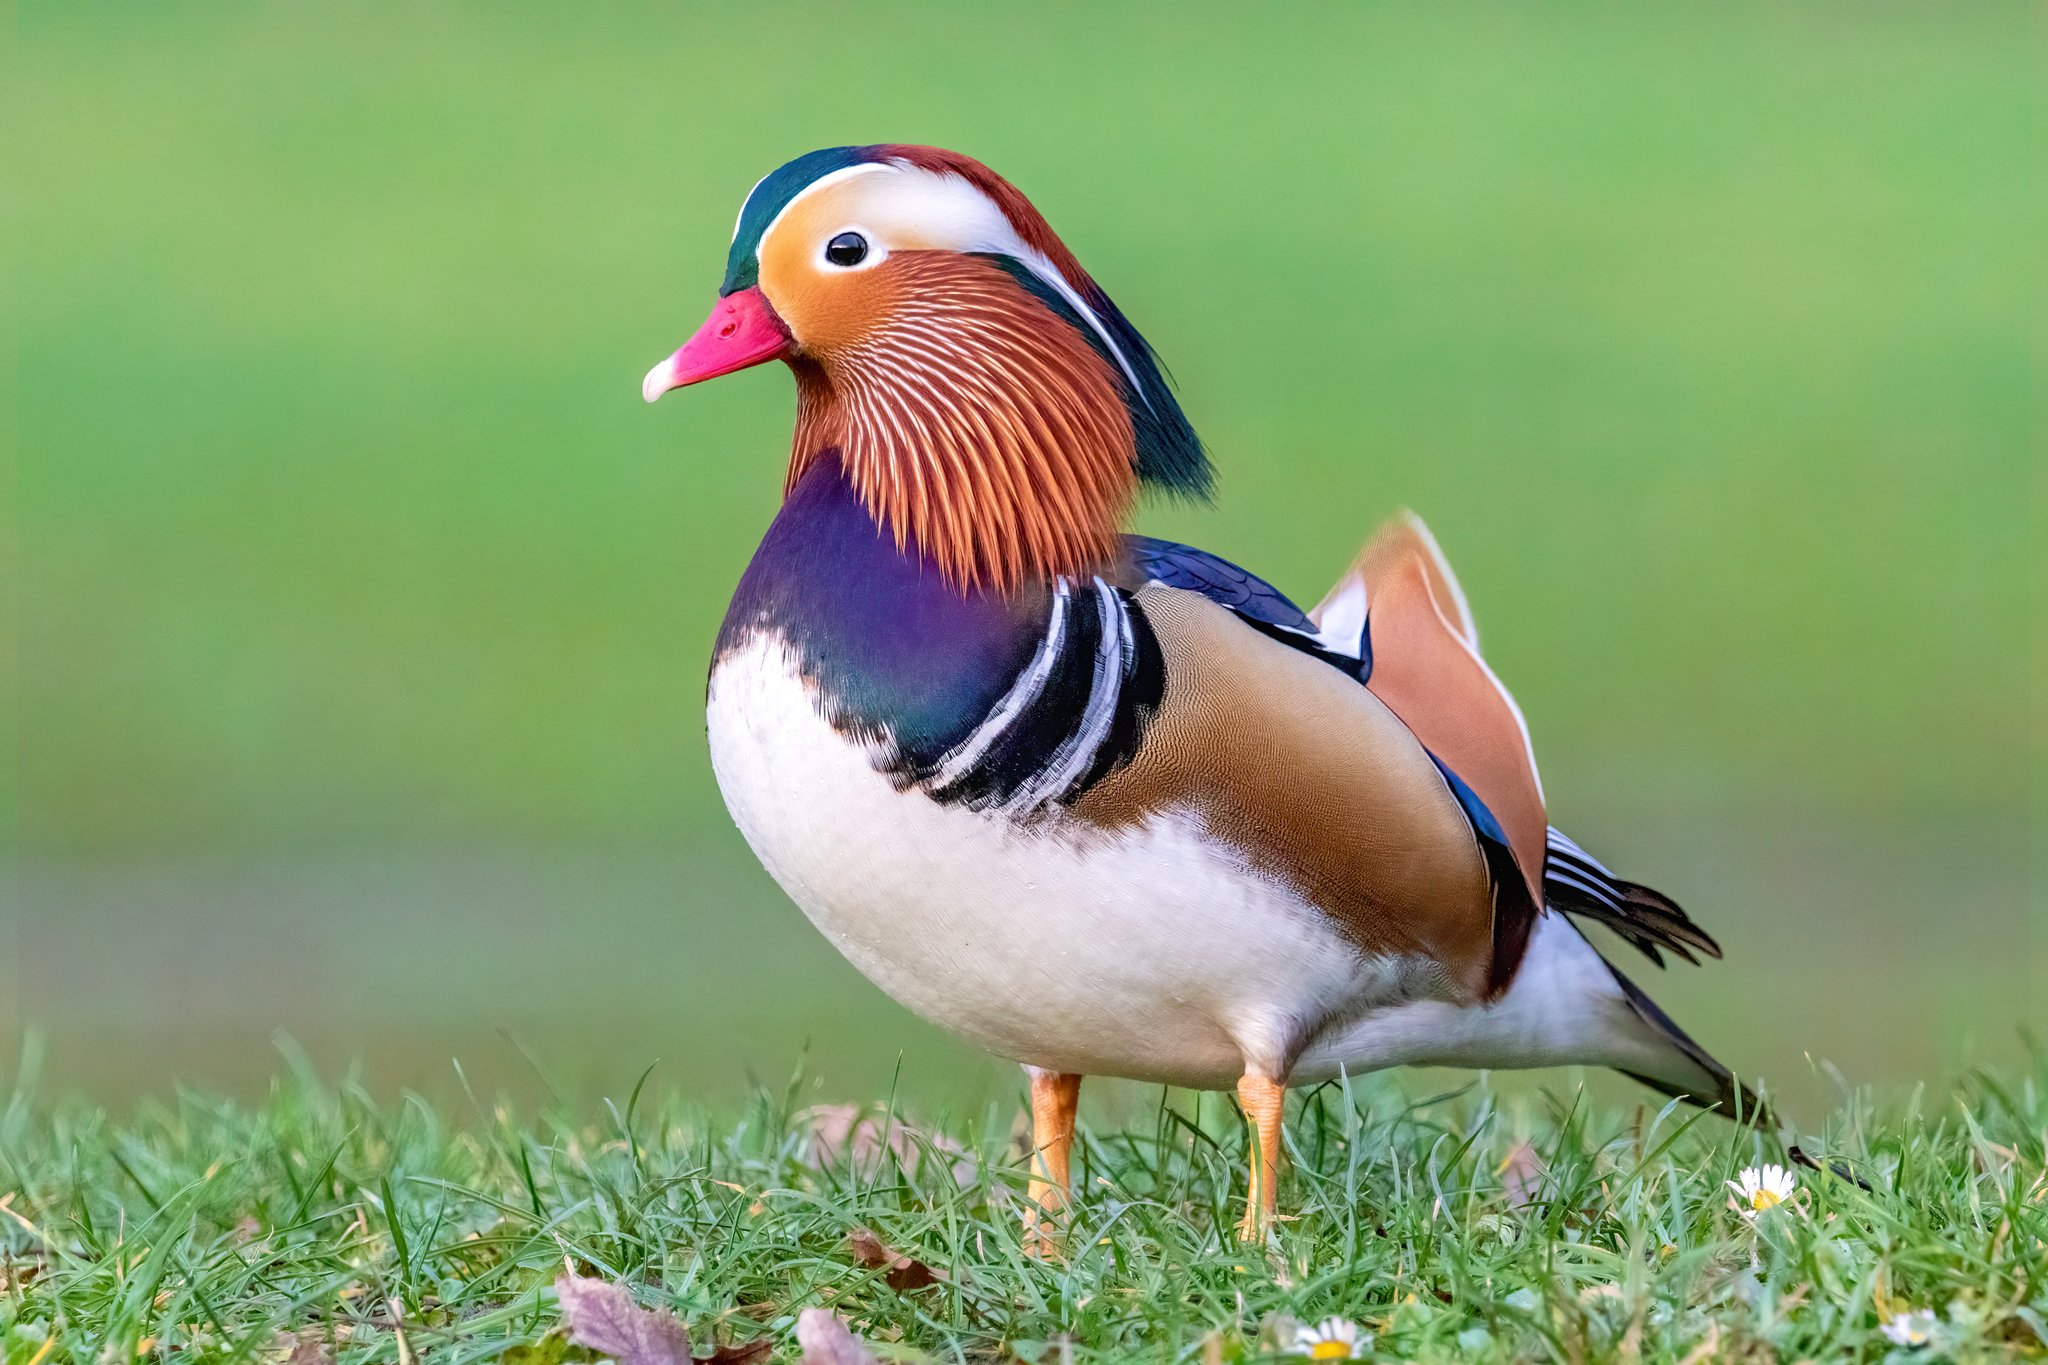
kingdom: Animalia
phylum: Chordata
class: Aves
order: Anseriformes
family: Anatidae
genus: Aix
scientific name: Aix galericulata
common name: Mandarin duck
